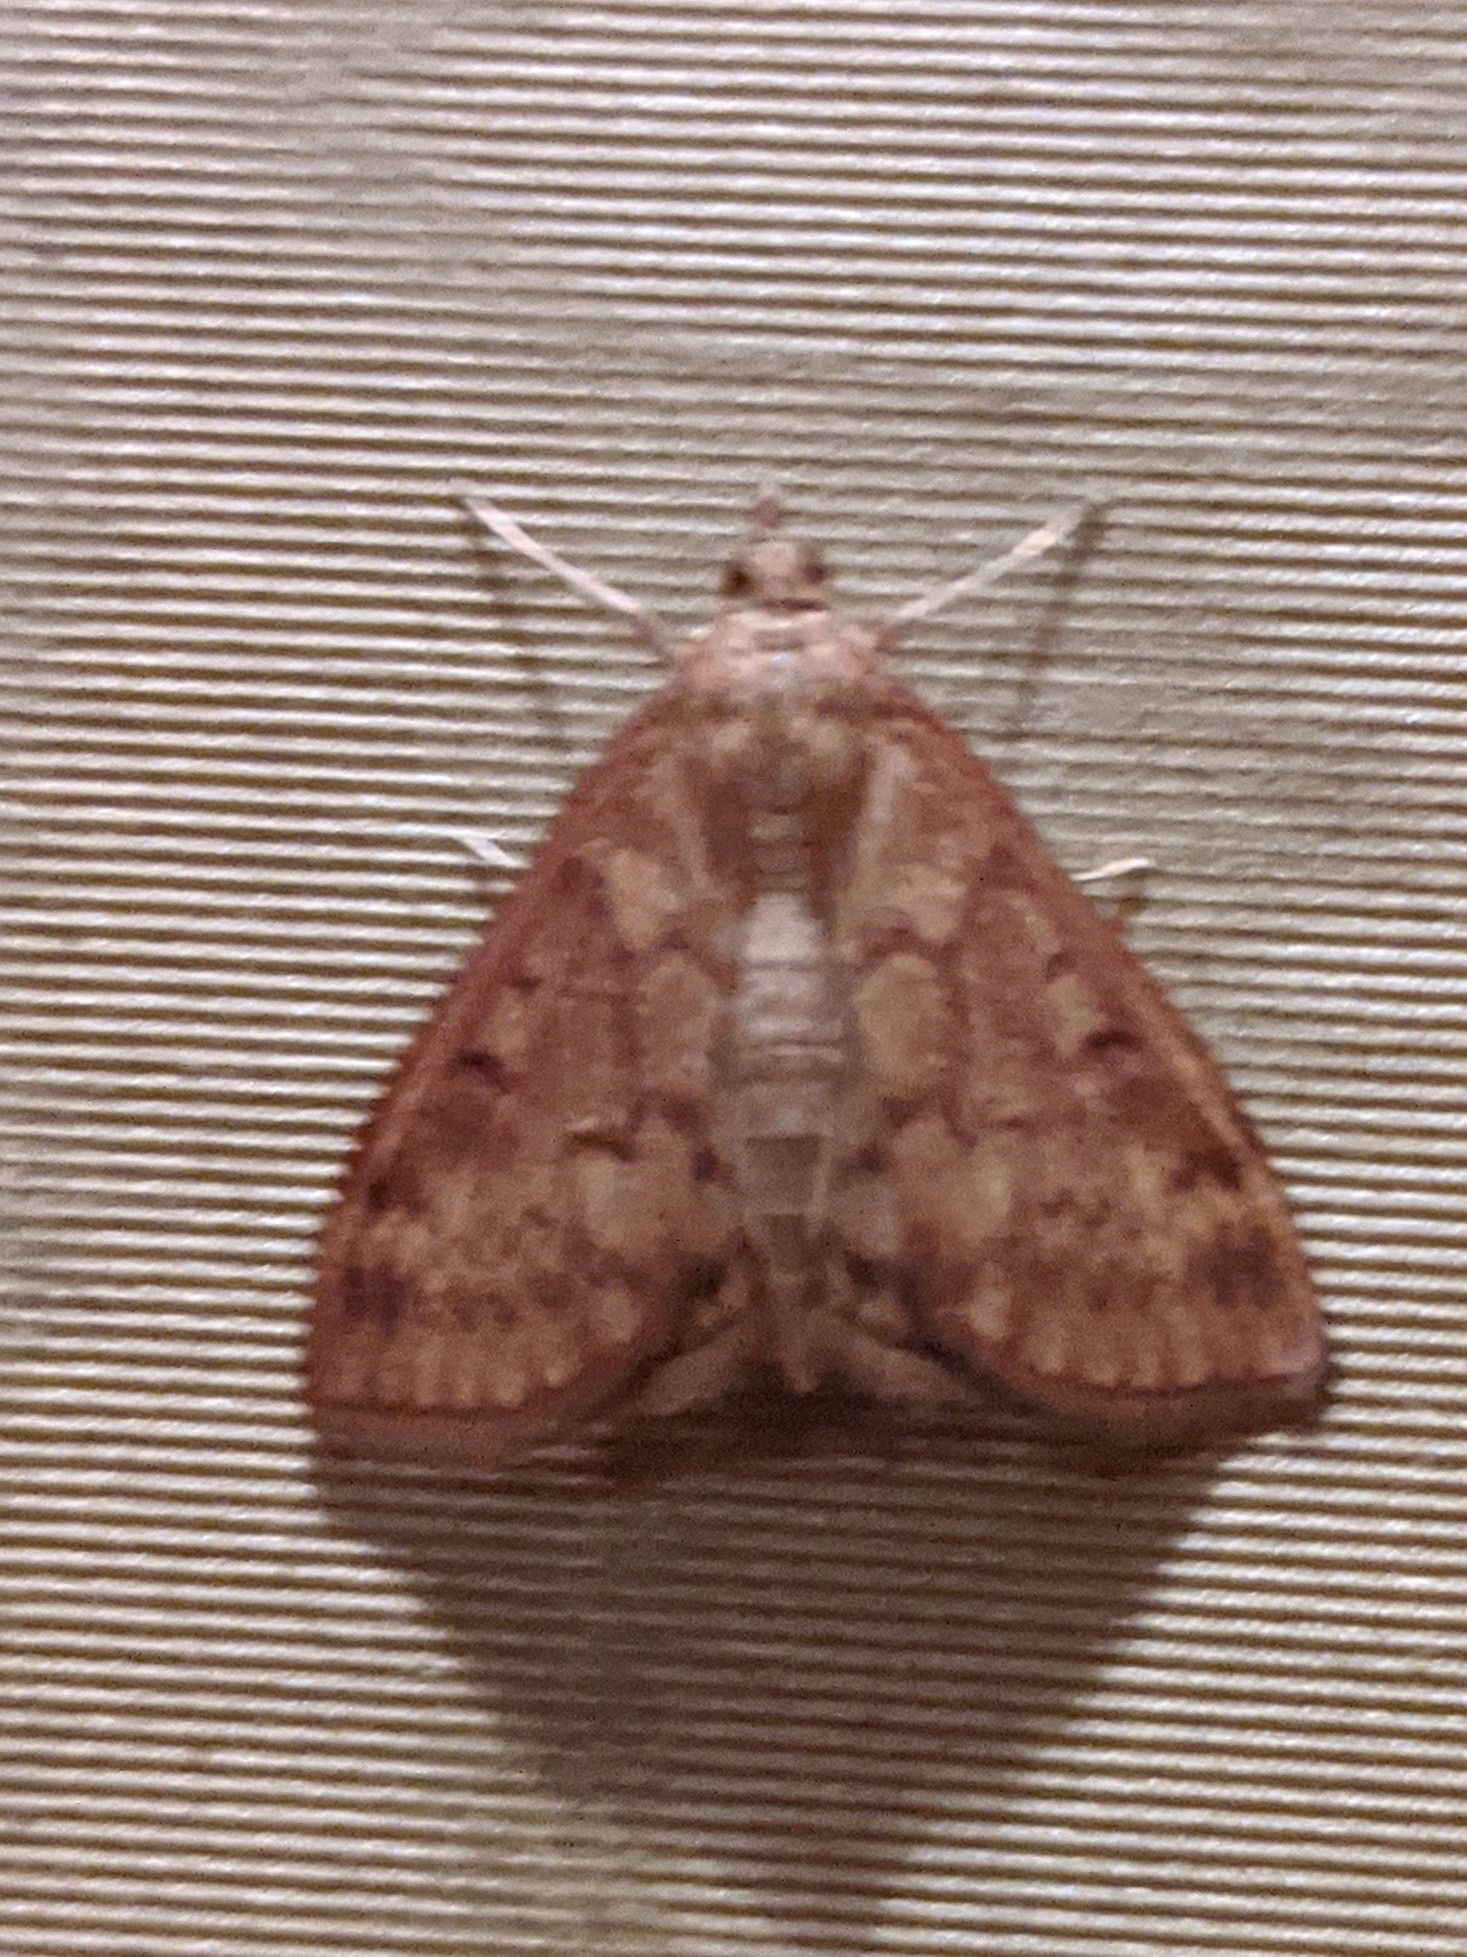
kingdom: Animalia
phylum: Arthropoda
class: Insecta
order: Lepidoptera
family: Crambidae
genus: Ostrinia
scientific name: Ostrinia nubilalis
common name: European corn borer
